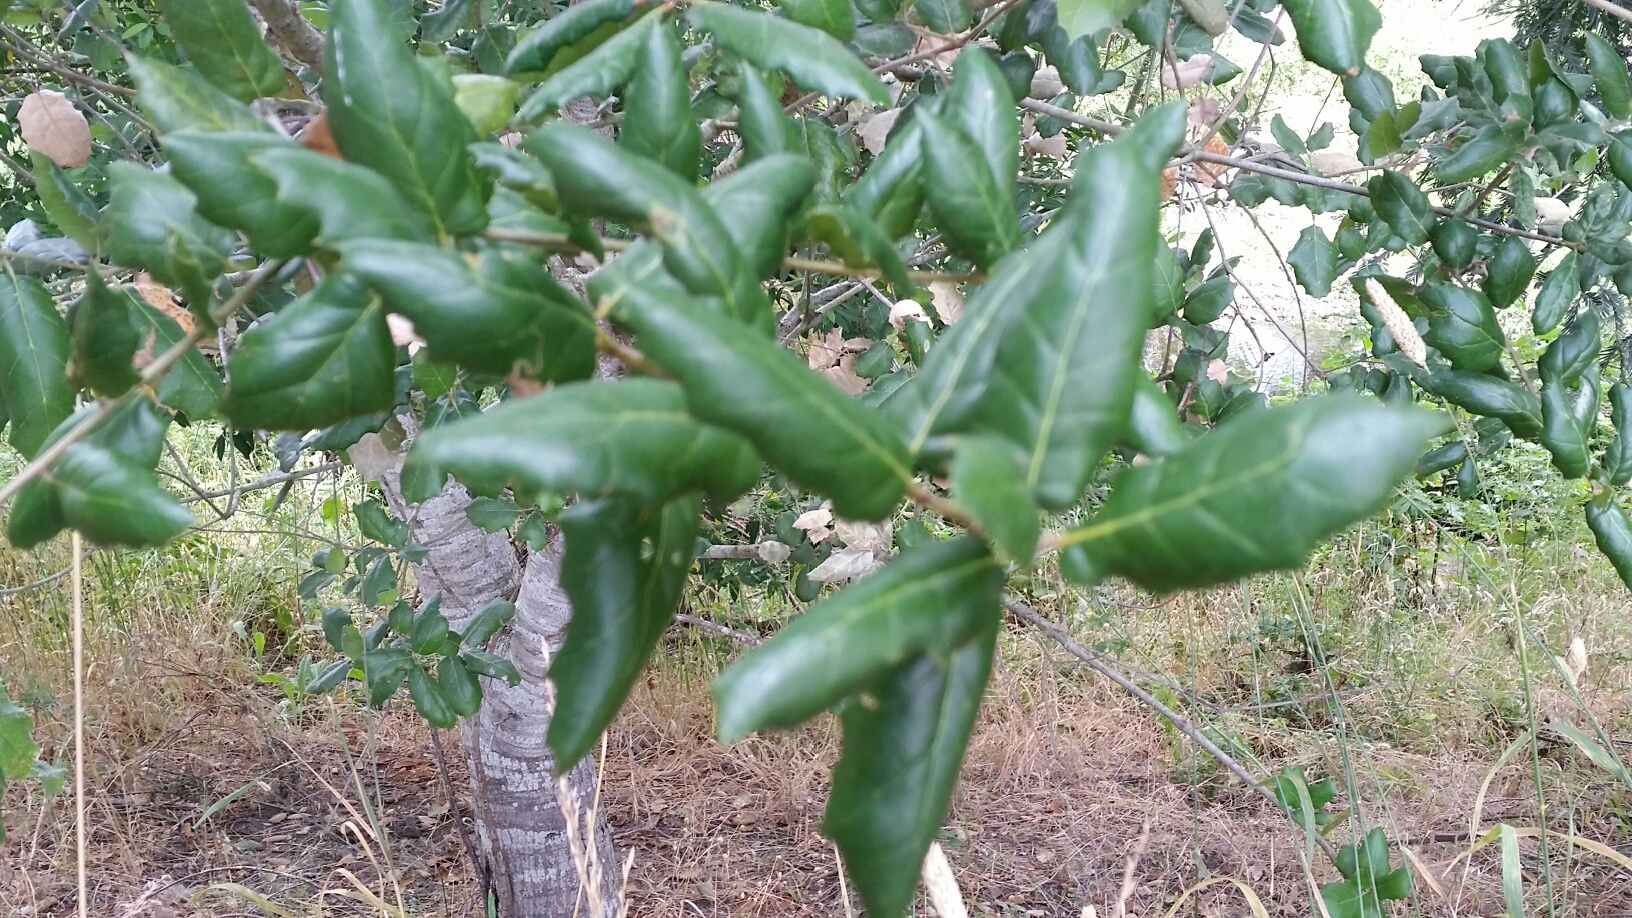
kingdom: Plantae
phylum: Tracheophyta
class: Magnoliopsida
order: Fagales
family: Fagaceae
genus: Quercus
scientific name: Quercus agrifolia
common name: California live oak
